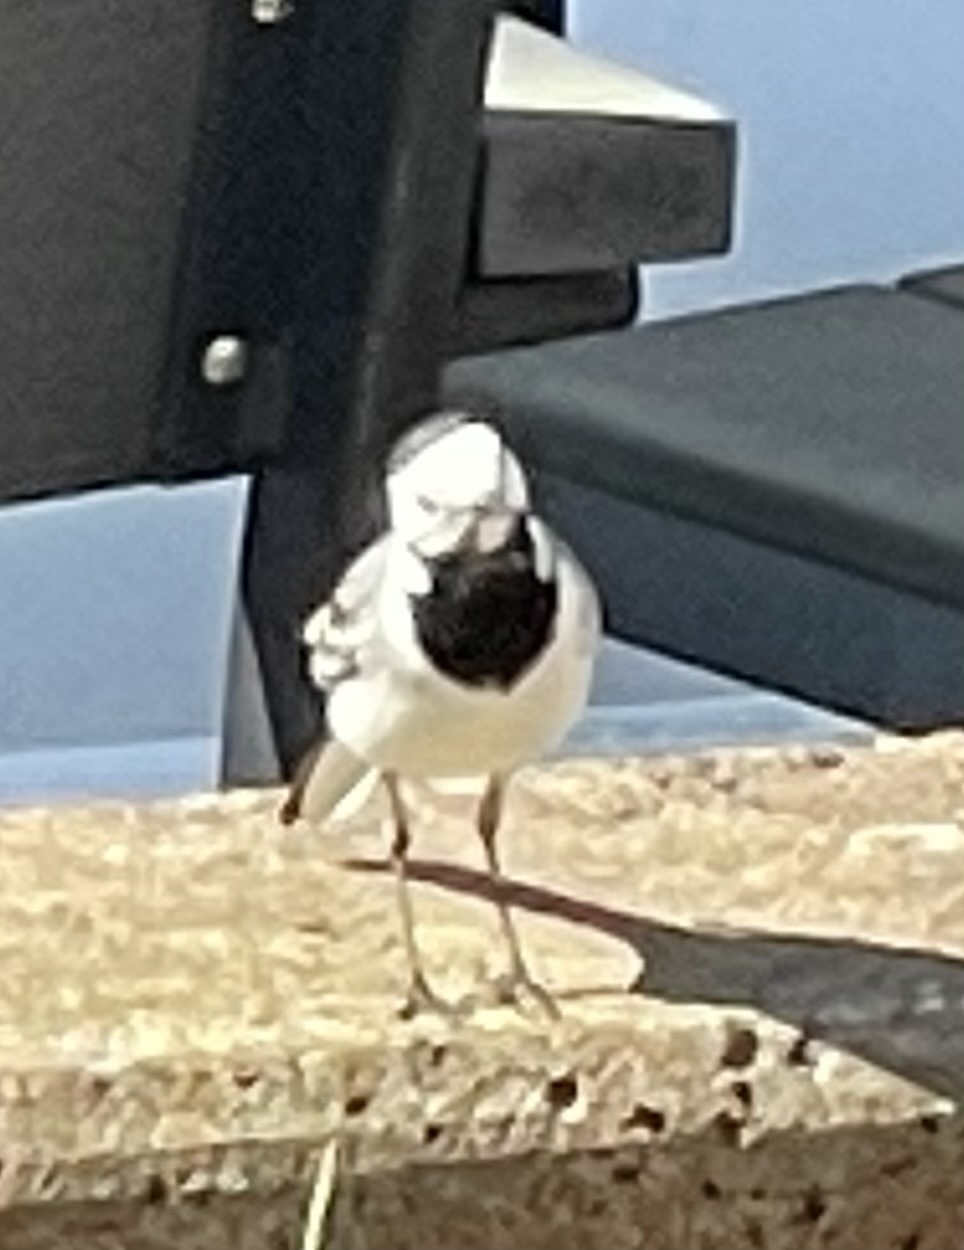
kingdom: Animalia
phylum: Chordata
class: Aves
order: Passeriformes
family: Motacillidae
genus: Motacilla
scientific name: Motacilla alba
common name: White wagtail
